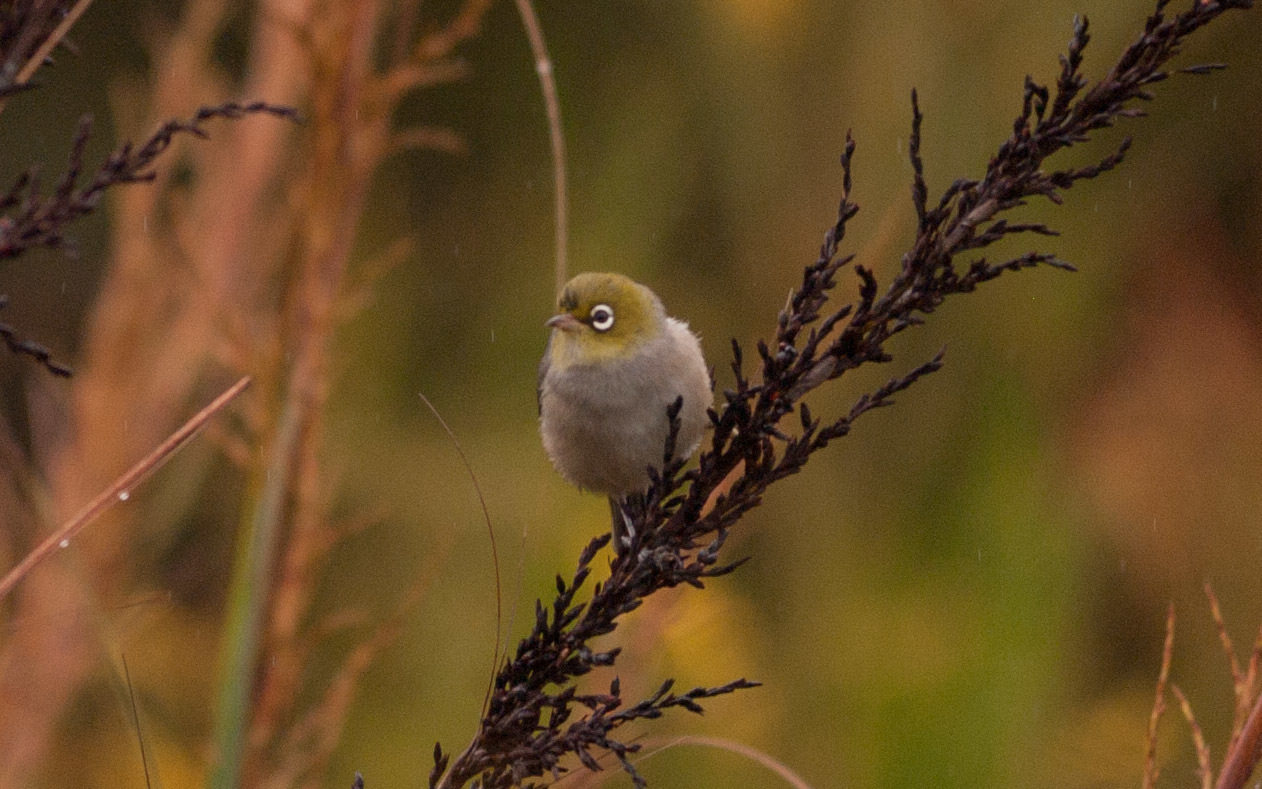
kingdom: Animalia
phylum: Chordata
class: Aves
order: Passeriformes
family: Zosteropidae
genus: Zosterops
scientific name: Zosterops lateralis
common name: Silvereye
